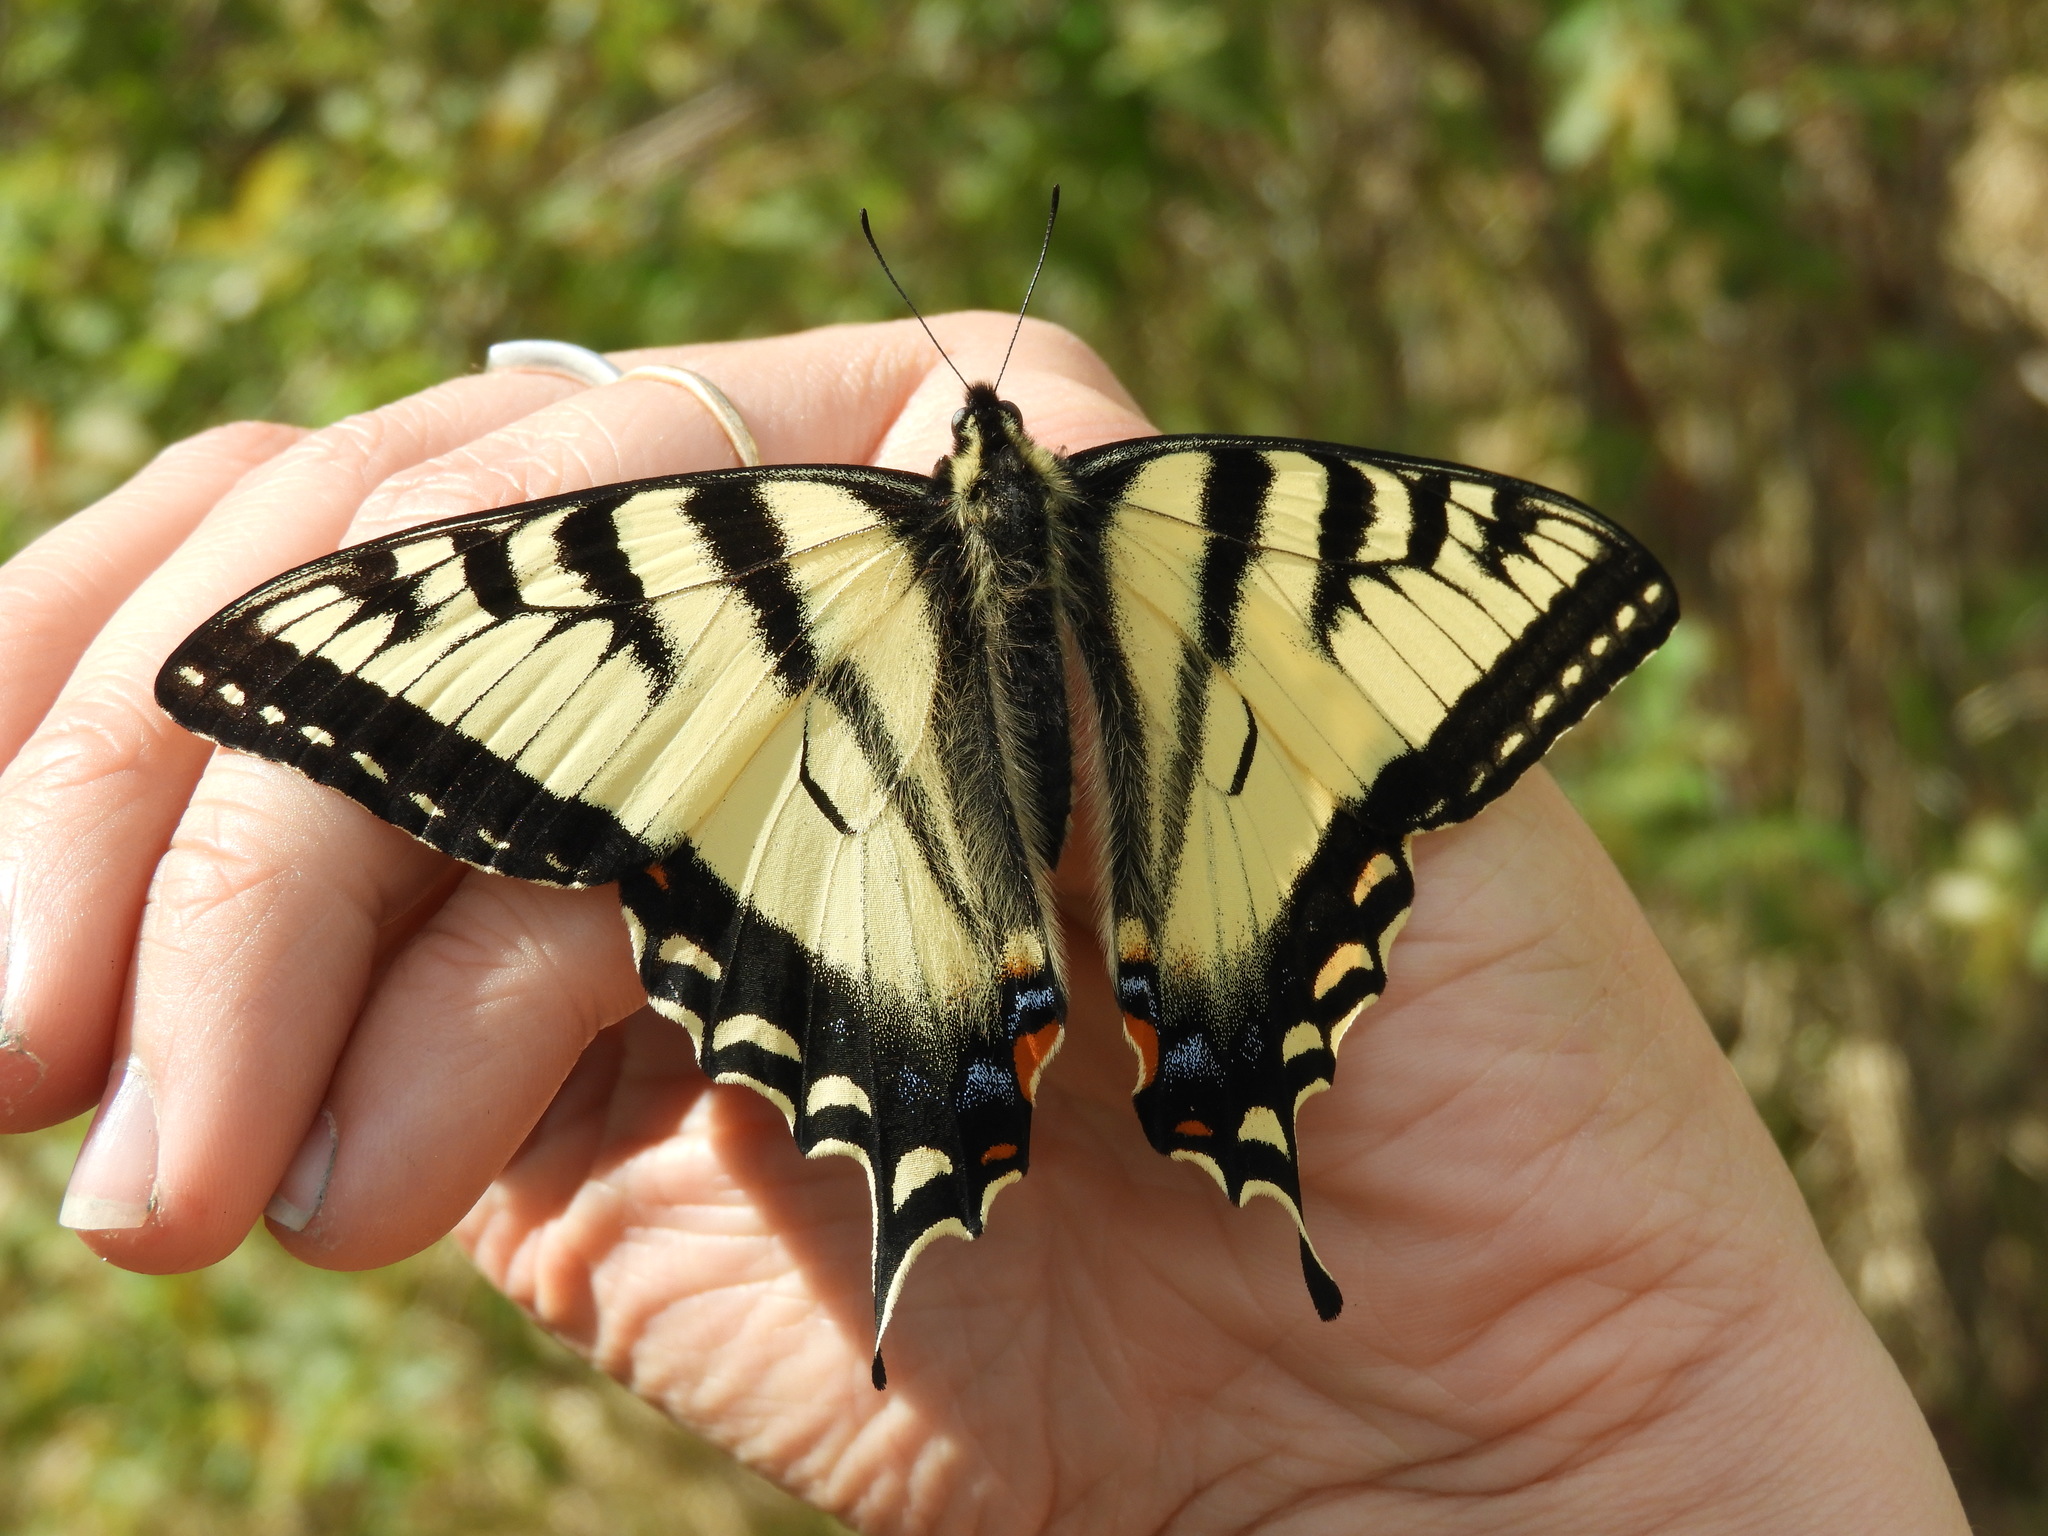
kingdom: Animalia
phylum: Arthropoda
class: Insecta
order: Lepidoptera
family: Papilionidae
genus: Papilio
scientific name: Papilio canadensis
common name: Canadian tiger swallowtail
